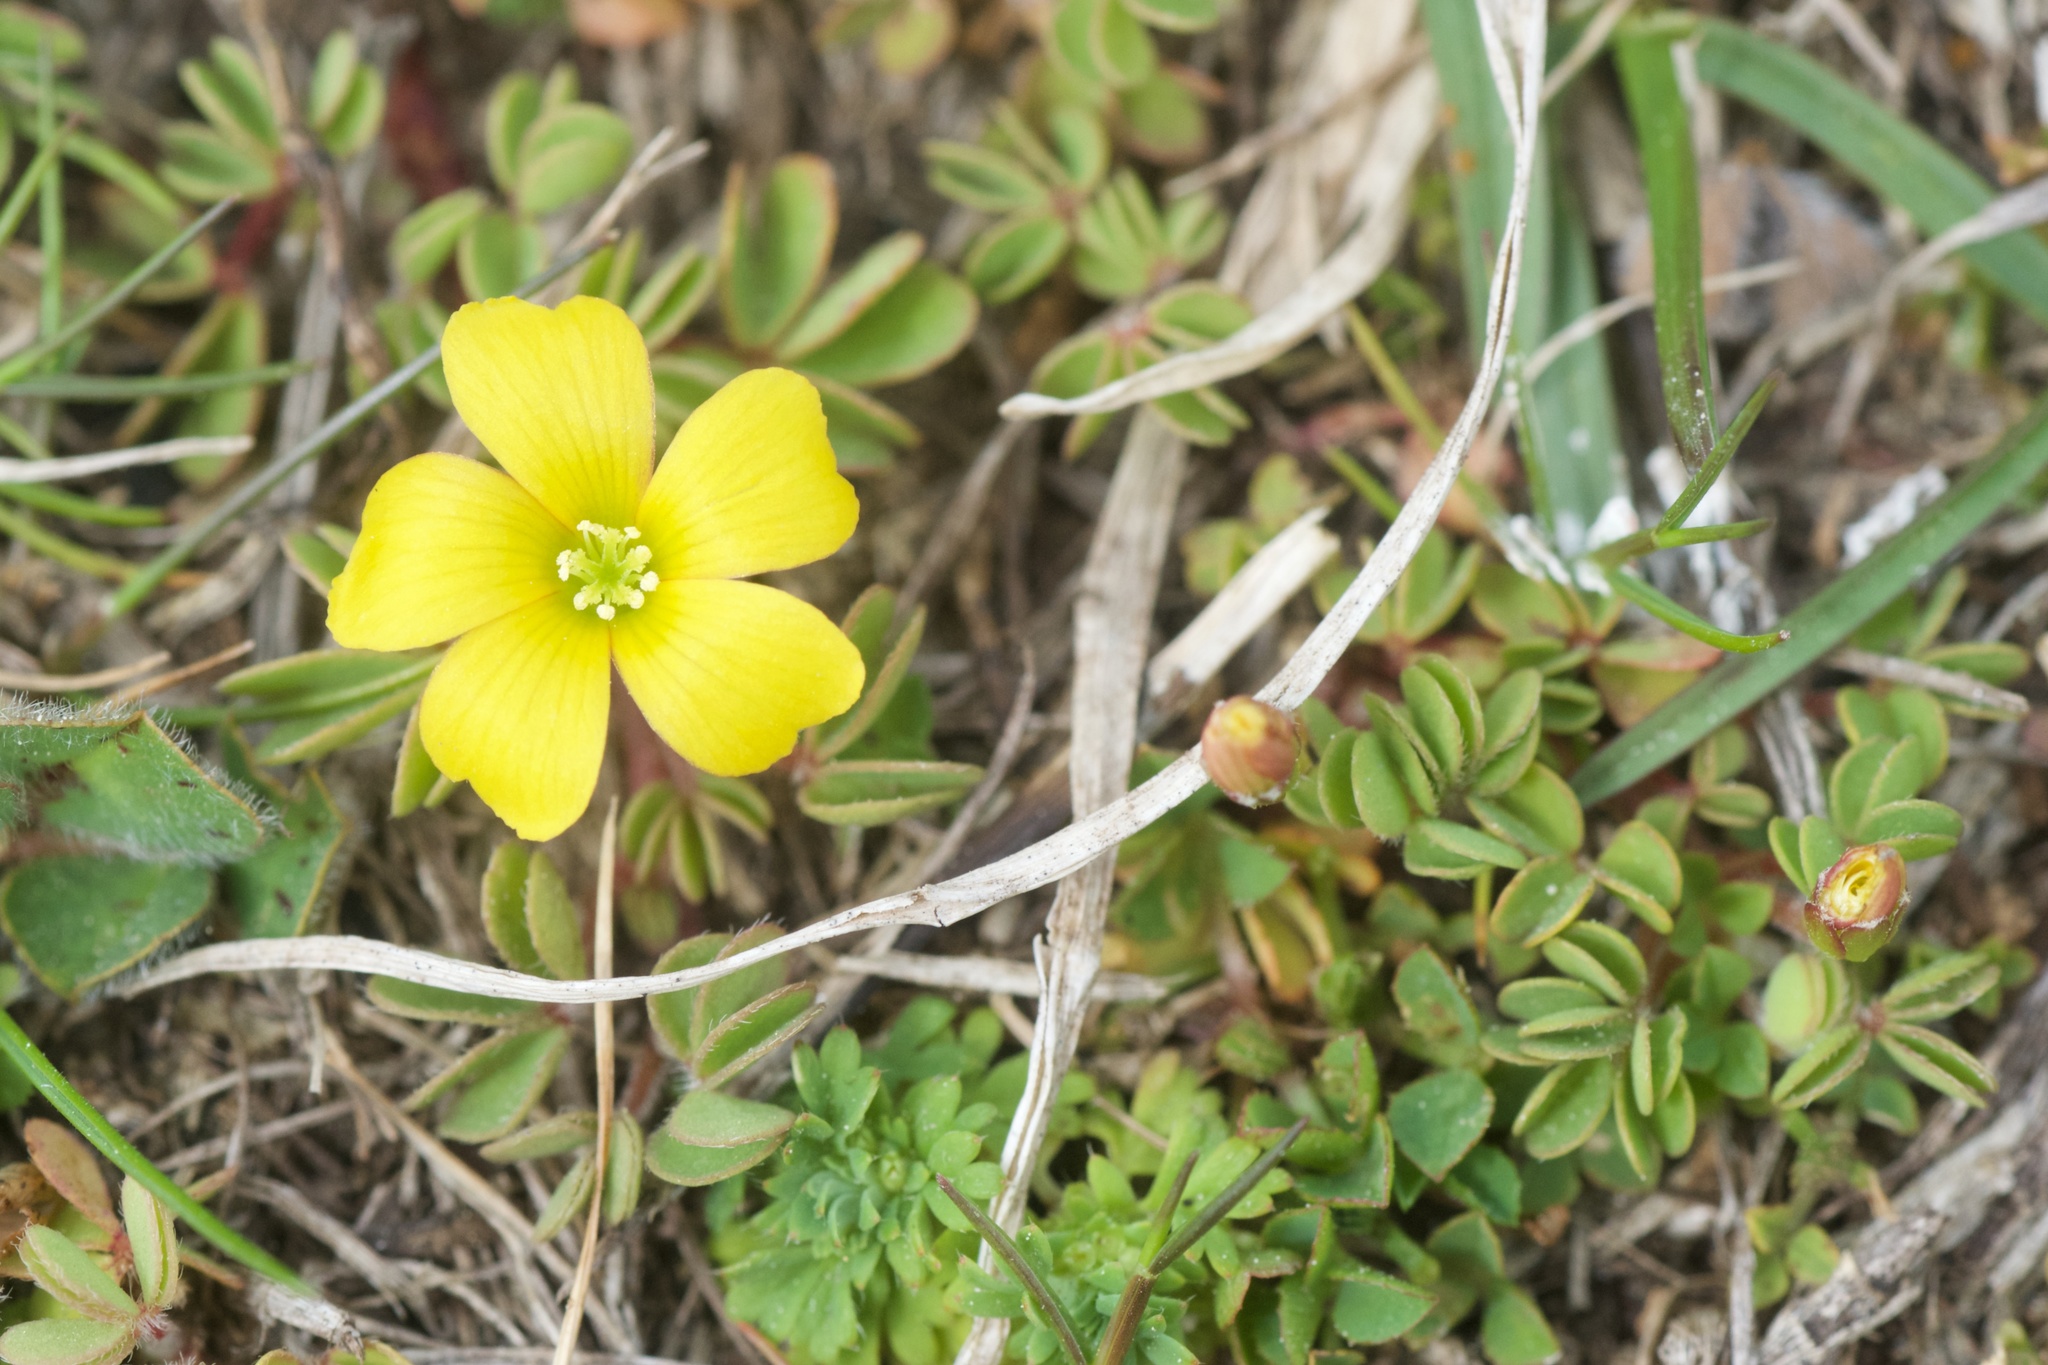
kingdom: Plantae
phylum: Tracheophyta
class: Magnoliopsida
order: Oxalidales
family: Oxalidaceae
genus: Oxalis
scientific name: Oxalis exilis
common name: Least yellow-sorrel
